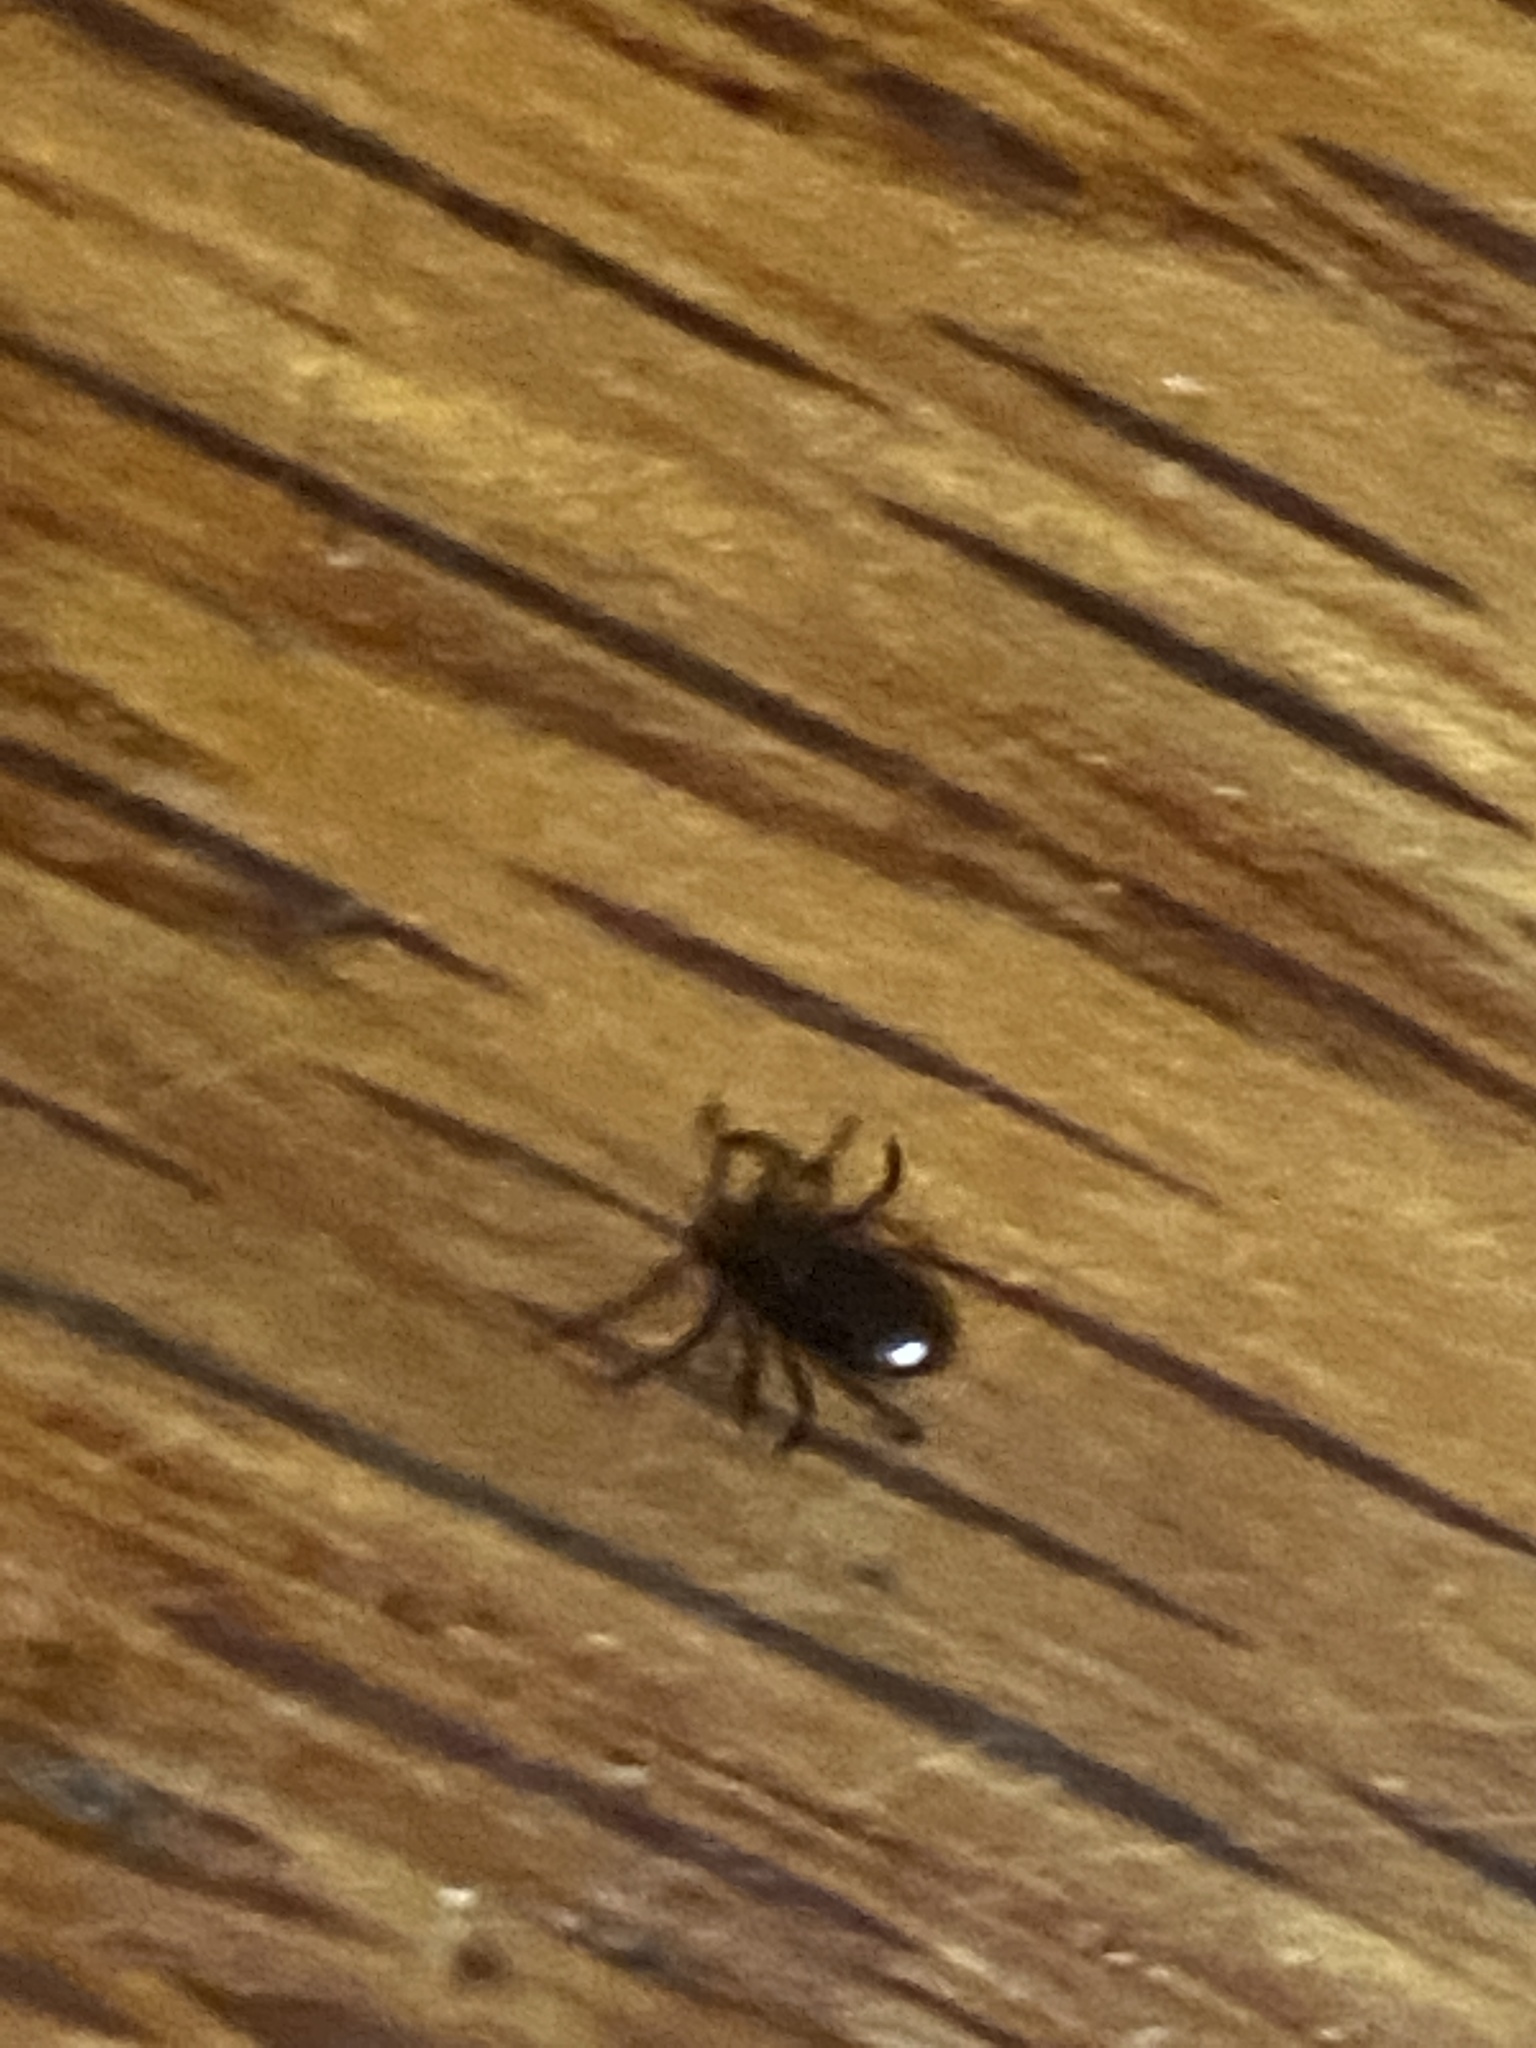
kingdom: Animalia
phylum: Arthropoda
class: Arachnida
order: Ixodida
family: Ixodidae
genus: Ixodes
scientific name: Ixodes scapularis
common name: Black legged tick
